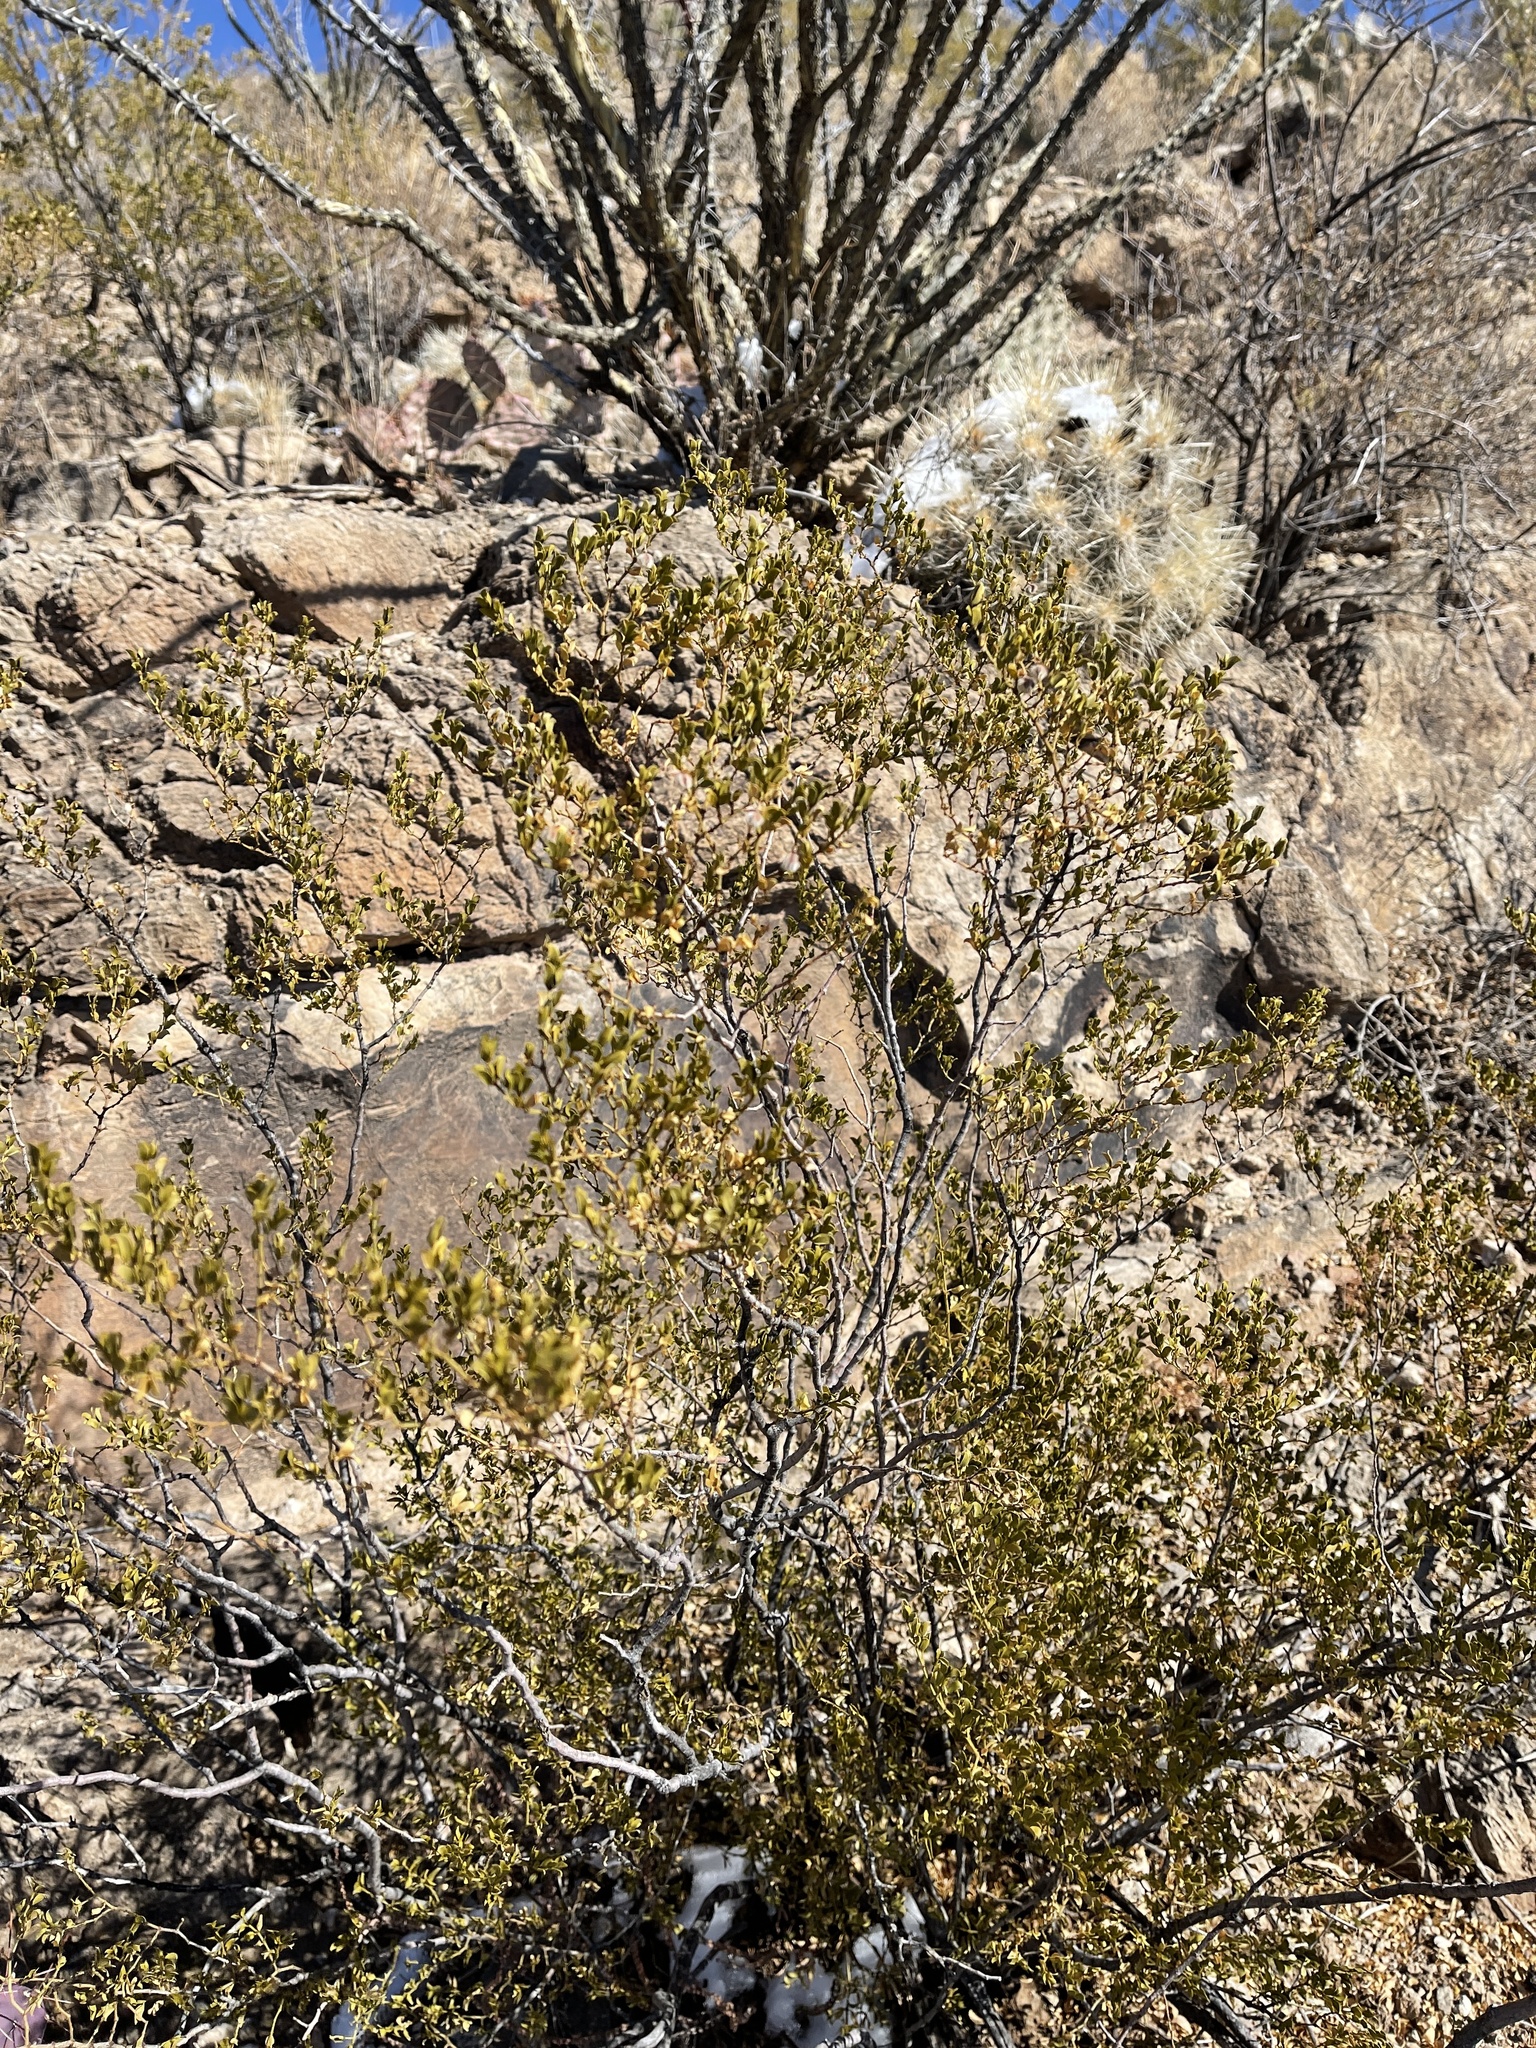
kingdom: Plantae
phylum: Tracheophyta
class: Magnoliopsida
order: Zygophyllales
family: Zygophyllaceae
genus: Larrea
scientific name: Larrea tridentata
